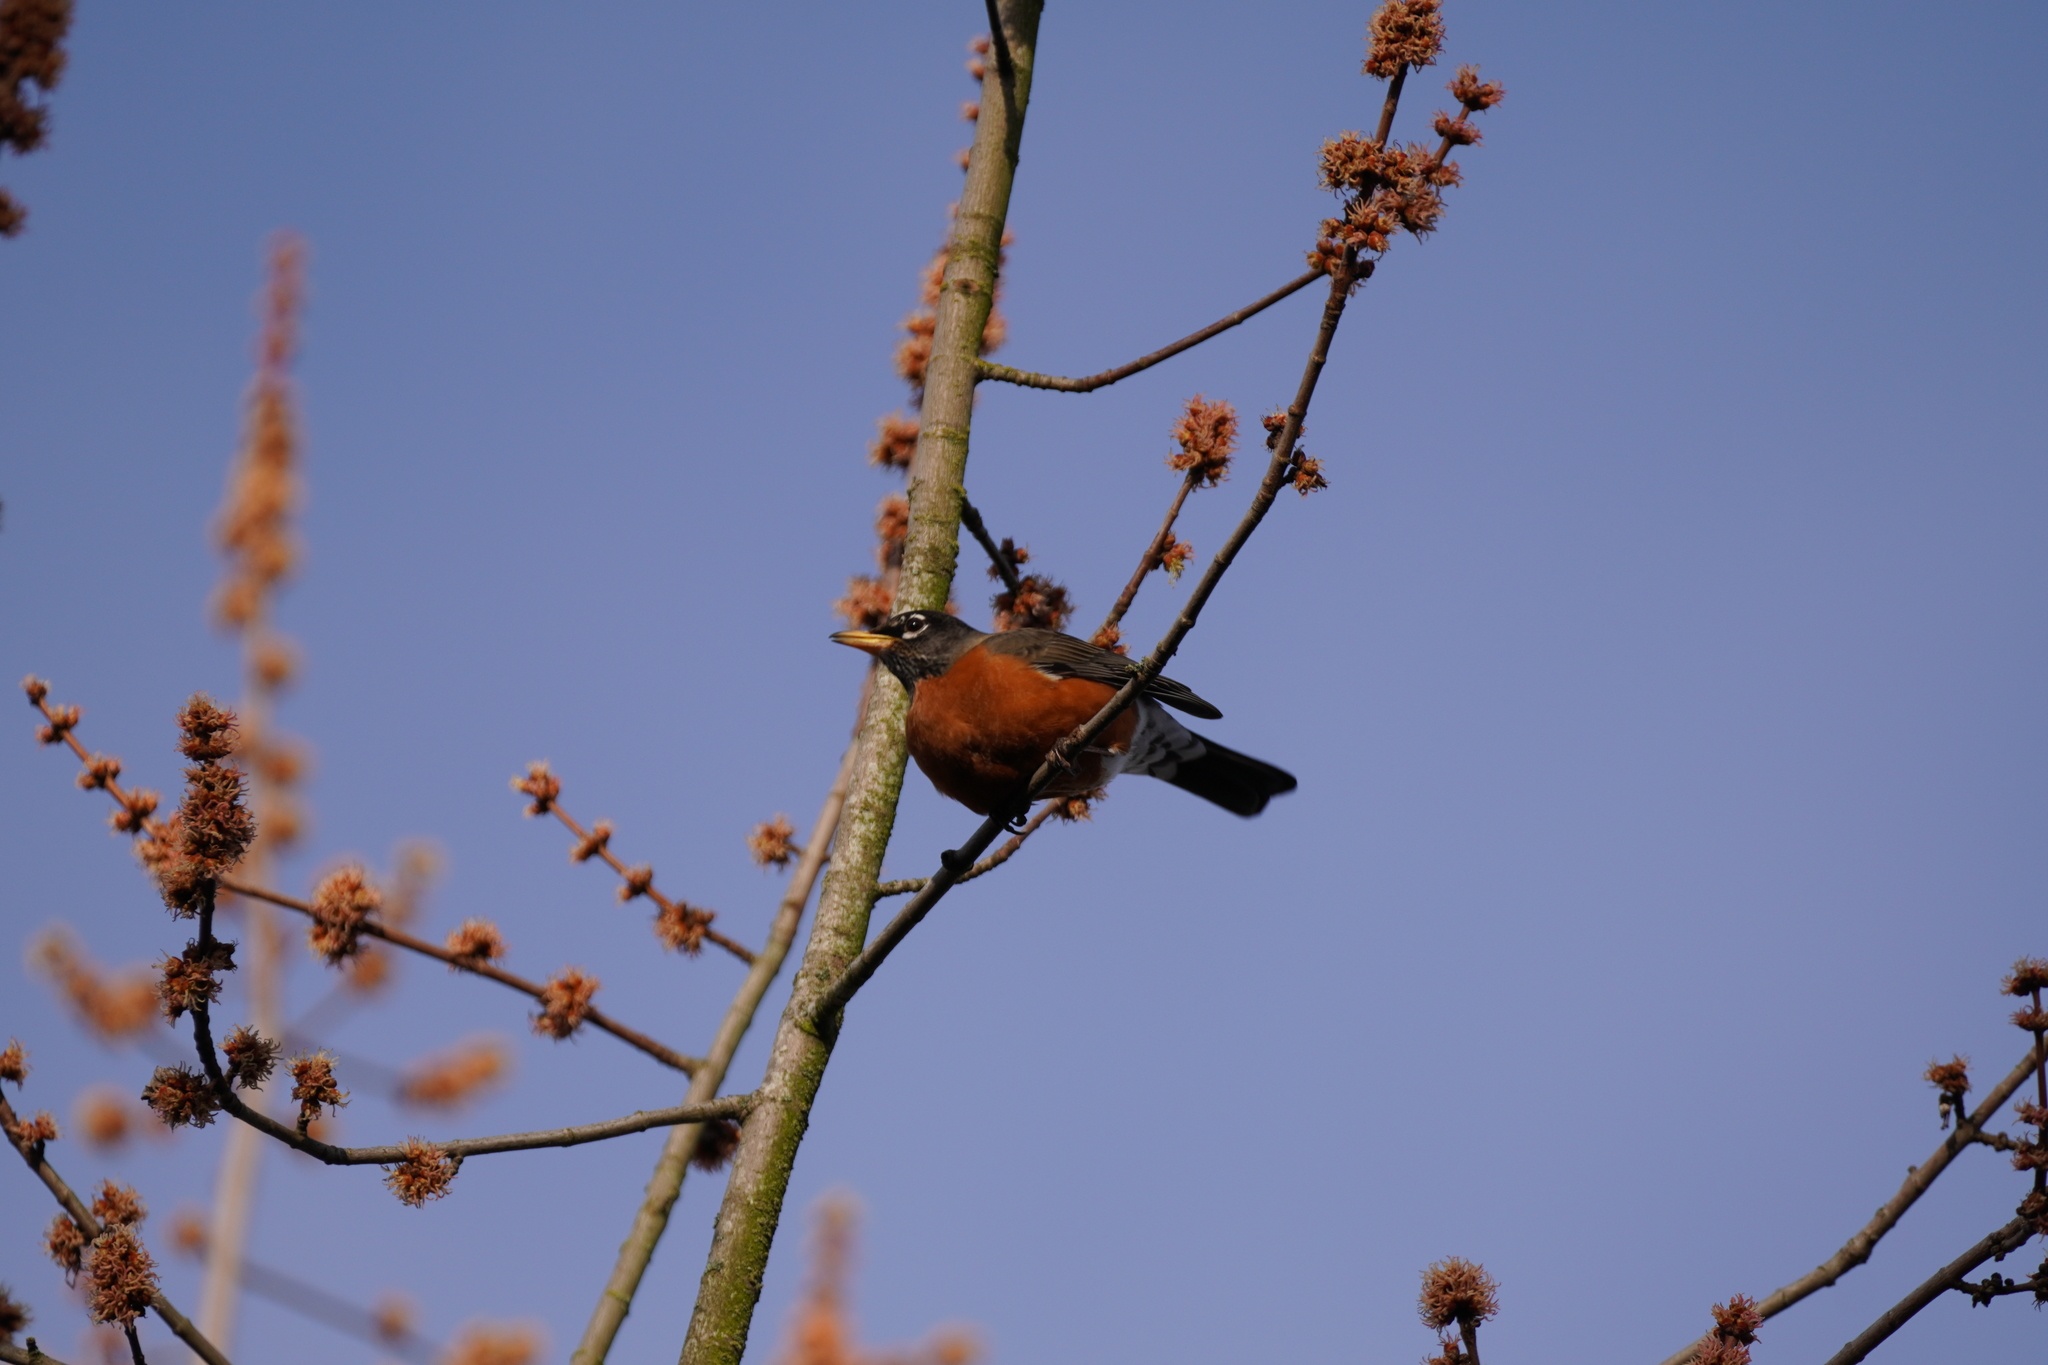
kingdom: Animalia
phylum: Chordata
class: Aves
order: Passeriformes
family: Turdidae
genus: Turdus
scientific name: Turdus migratorius
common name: American robin
